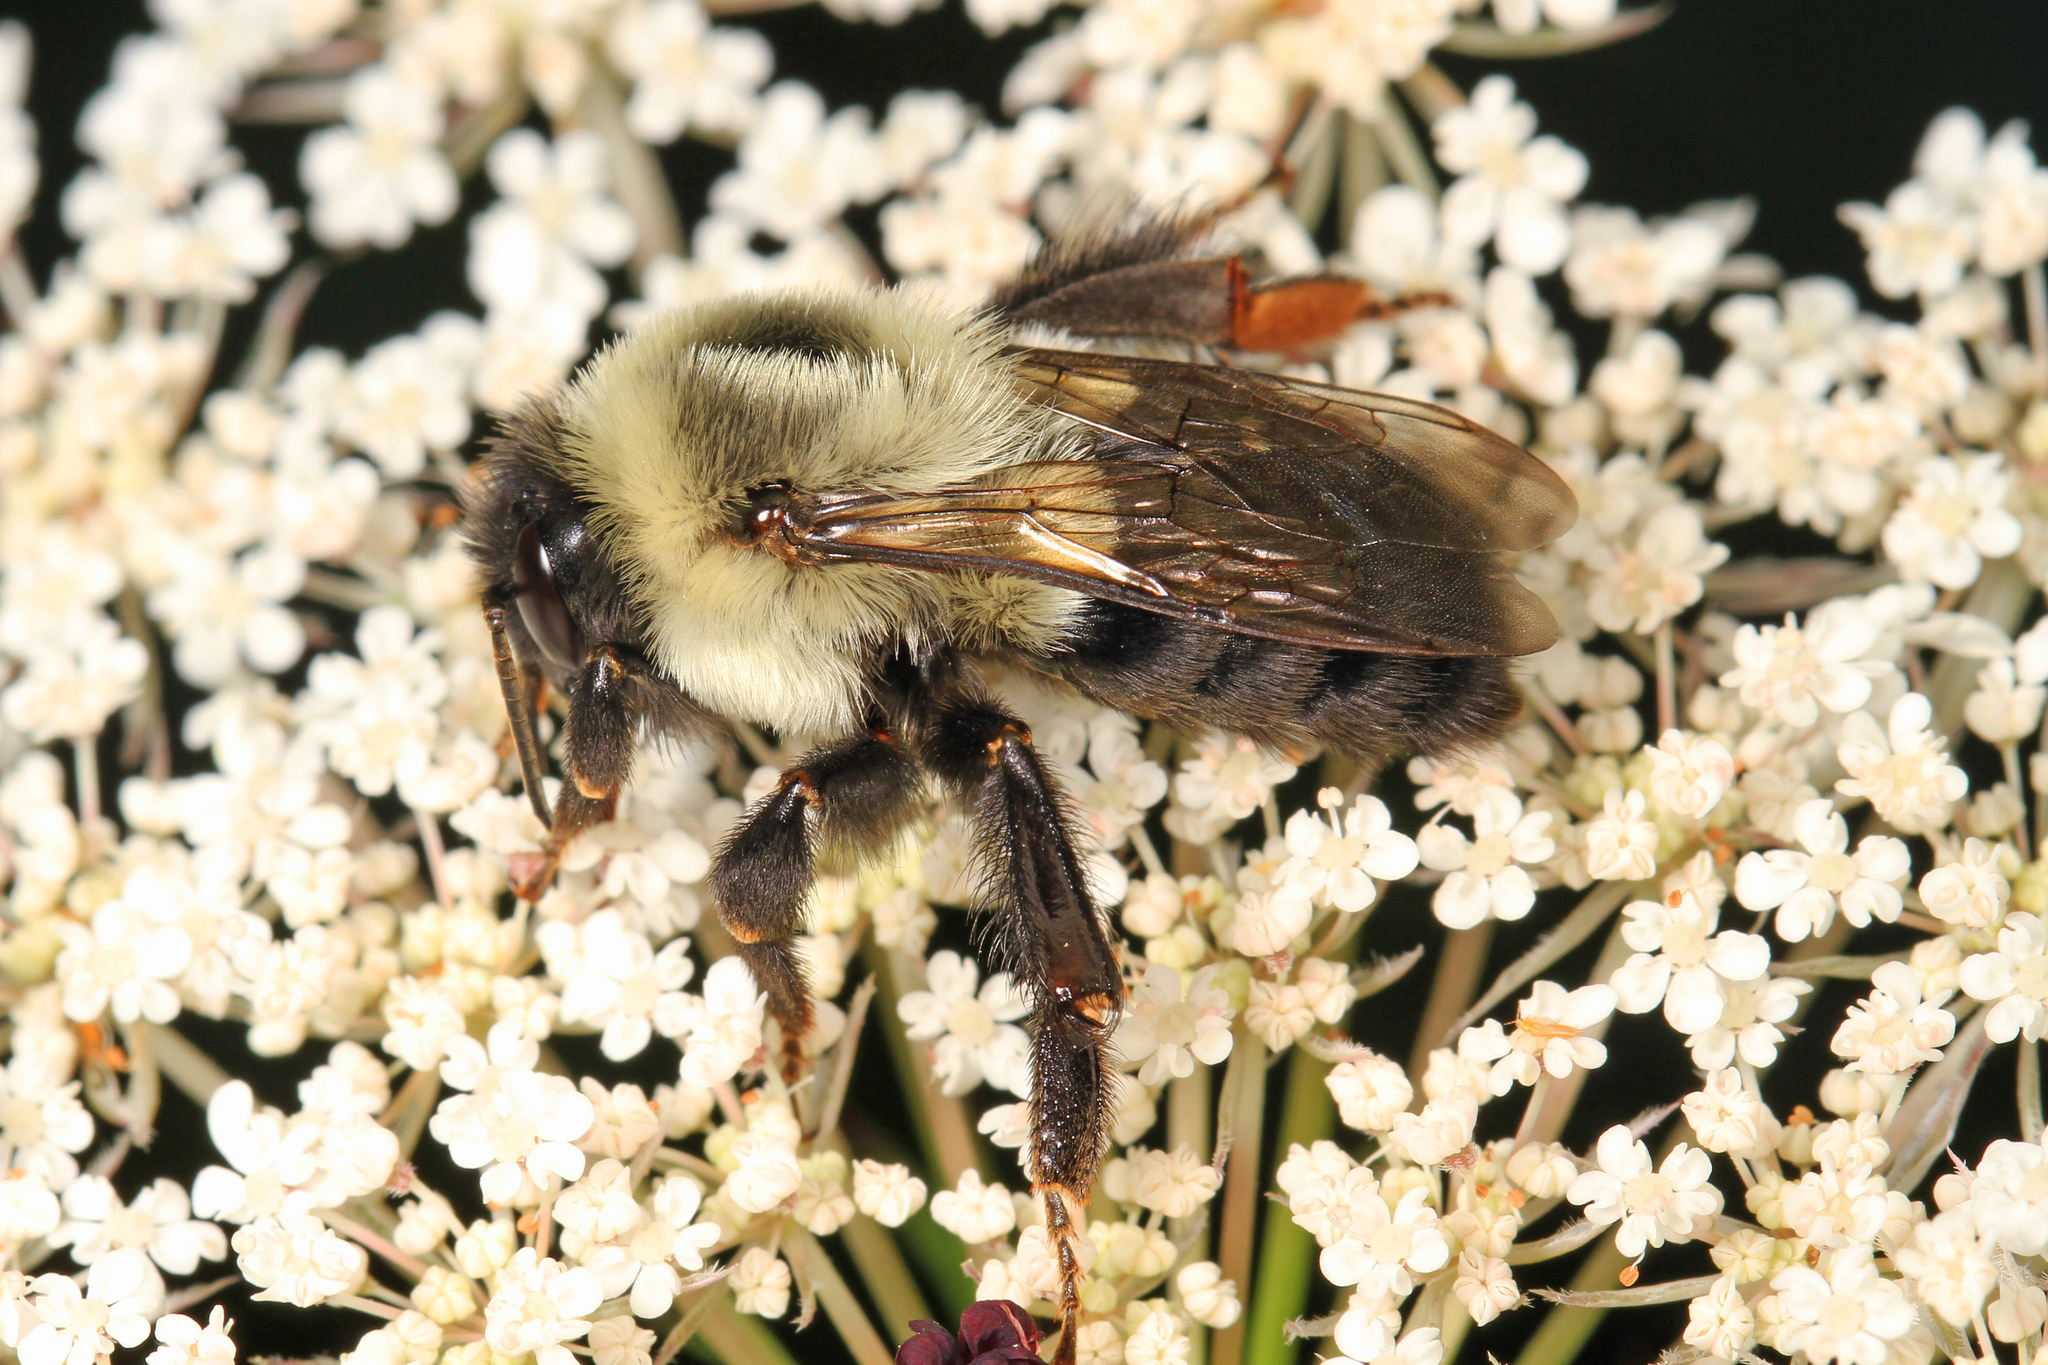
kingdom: Animalia
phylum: Arthropoda
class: Insecta
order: Hymenoptera
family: Apidae
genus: Bombus
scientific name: Bombus impatiens
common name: Common eastern bumble bee
